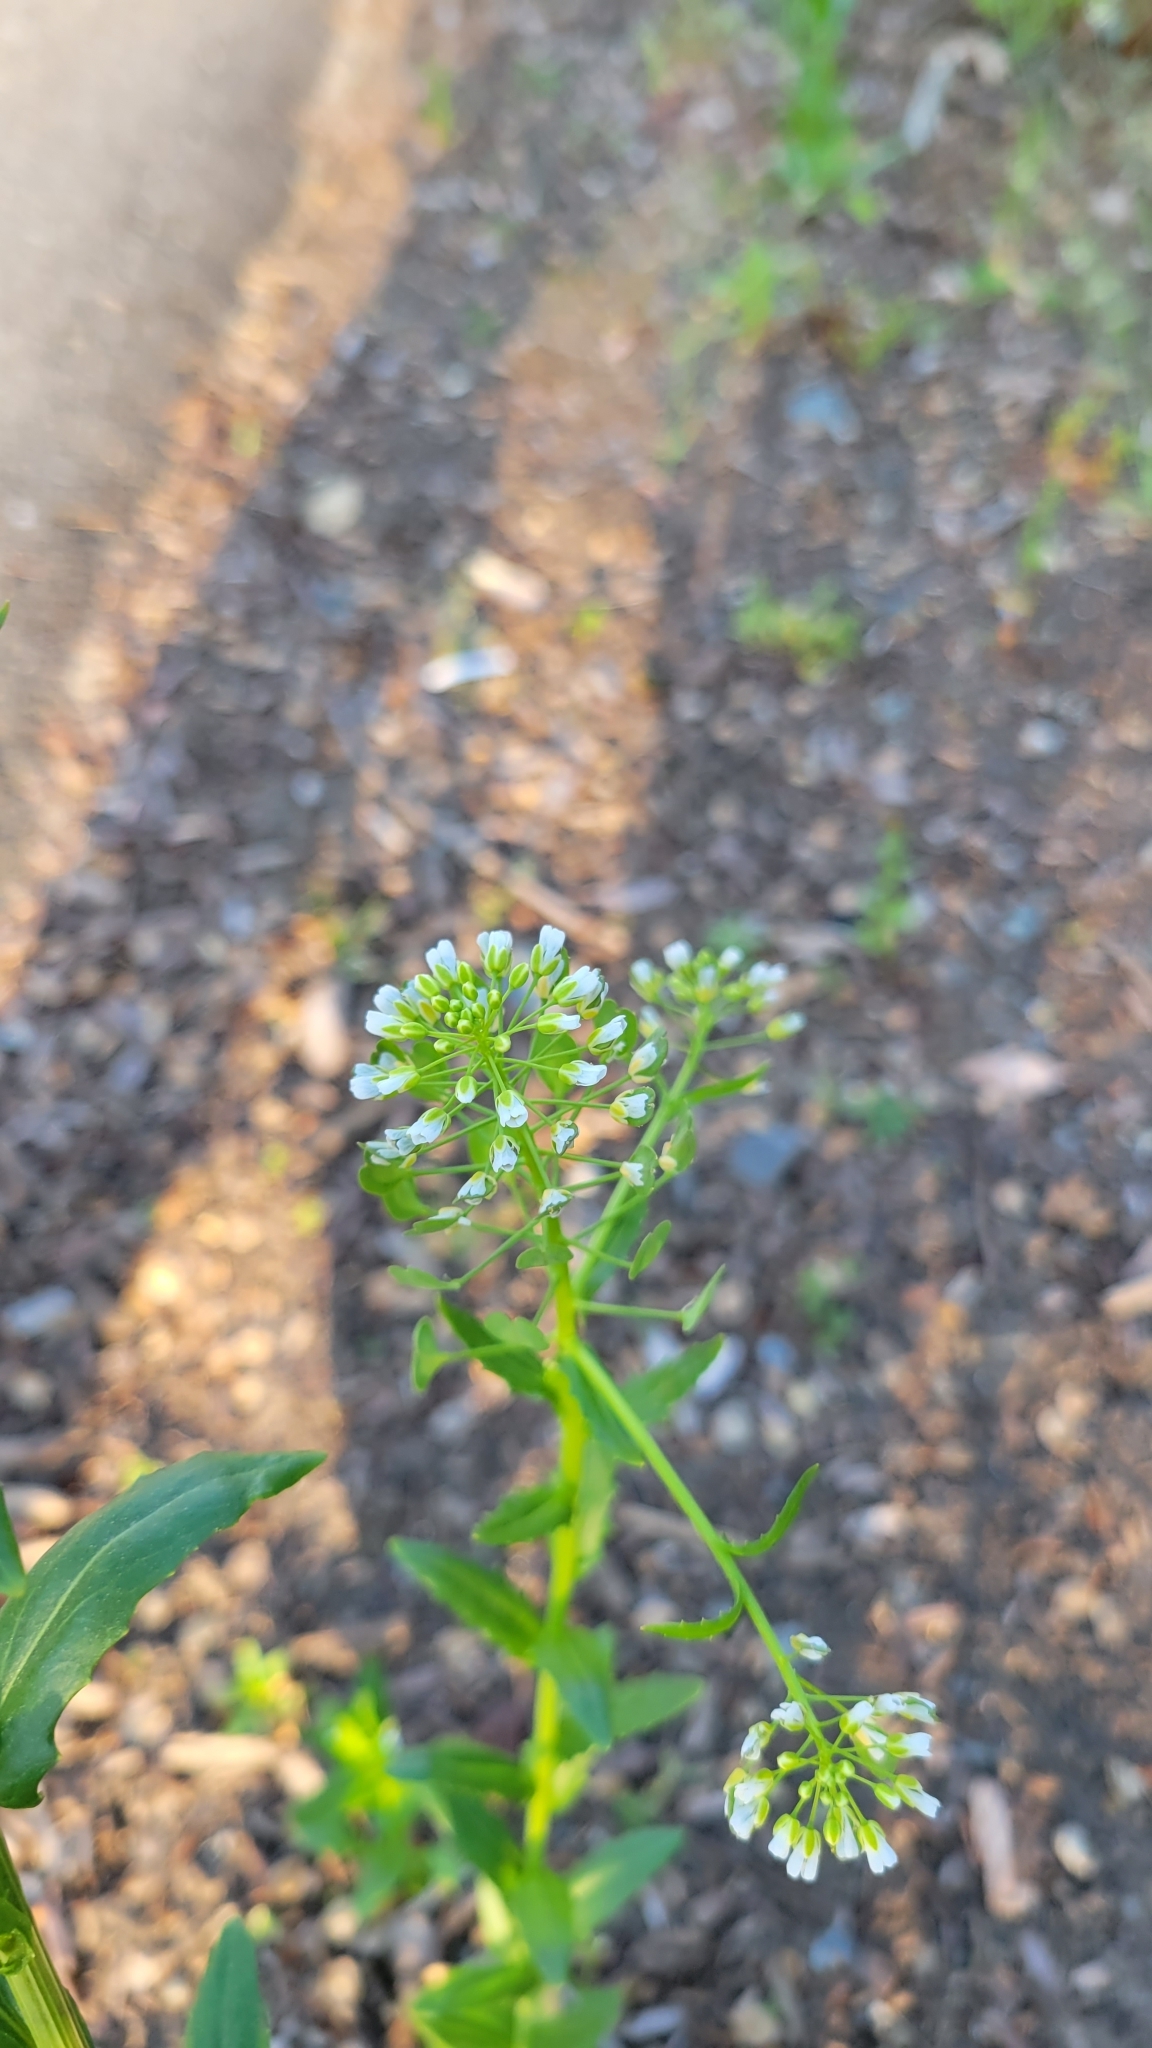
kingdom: Plantae
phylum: Tracheophyta
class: Magnoliopsida
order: Brassicales
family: Brassicaceae
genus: Thlaspi
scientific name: Thlaspi arvense
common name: Field pennycress
